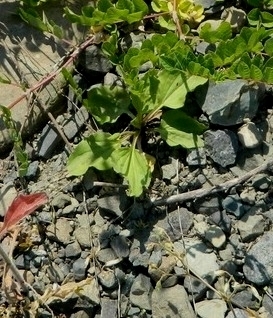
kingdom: Plantae
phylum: Tracheophyta
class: Magnoliopsida
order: Lamiales
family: Plantaginaceae
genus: Plantago
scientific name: Plantago major
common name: Common plantain
